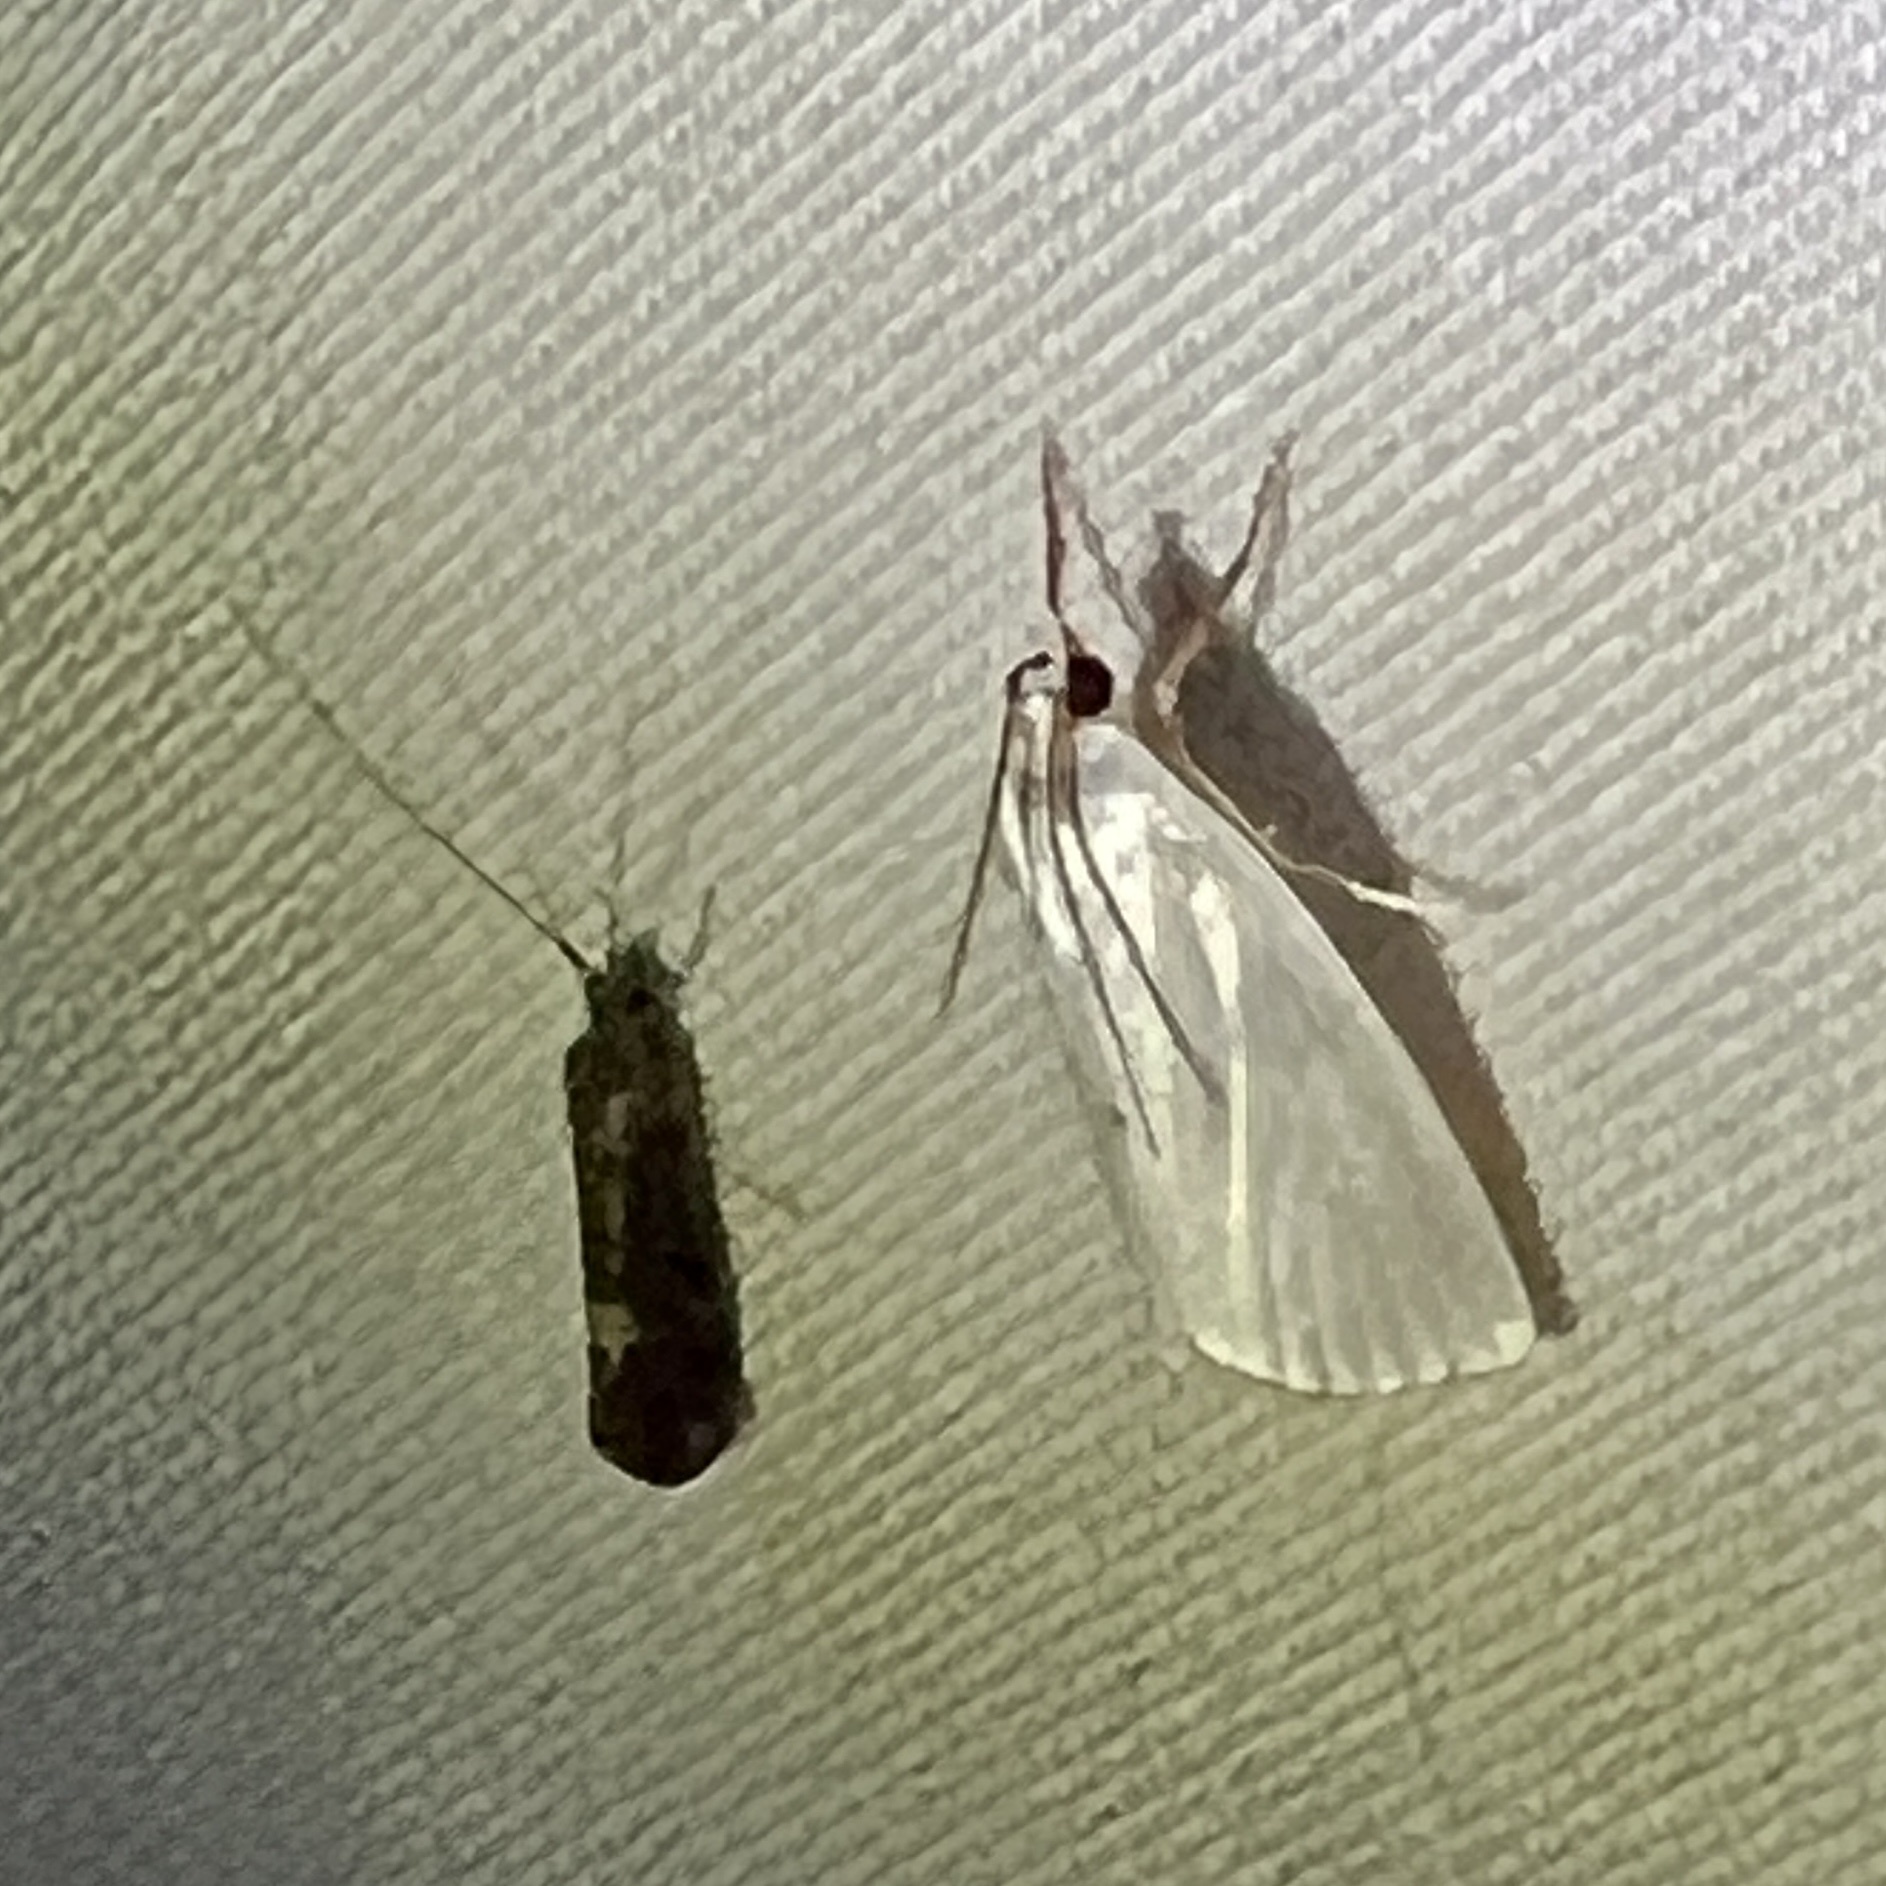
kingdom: Animalia
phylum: Arthropoda
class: Insecta
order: Lepidoptera
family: Crambidae
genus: Argyria
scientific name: Argyria nivalis
